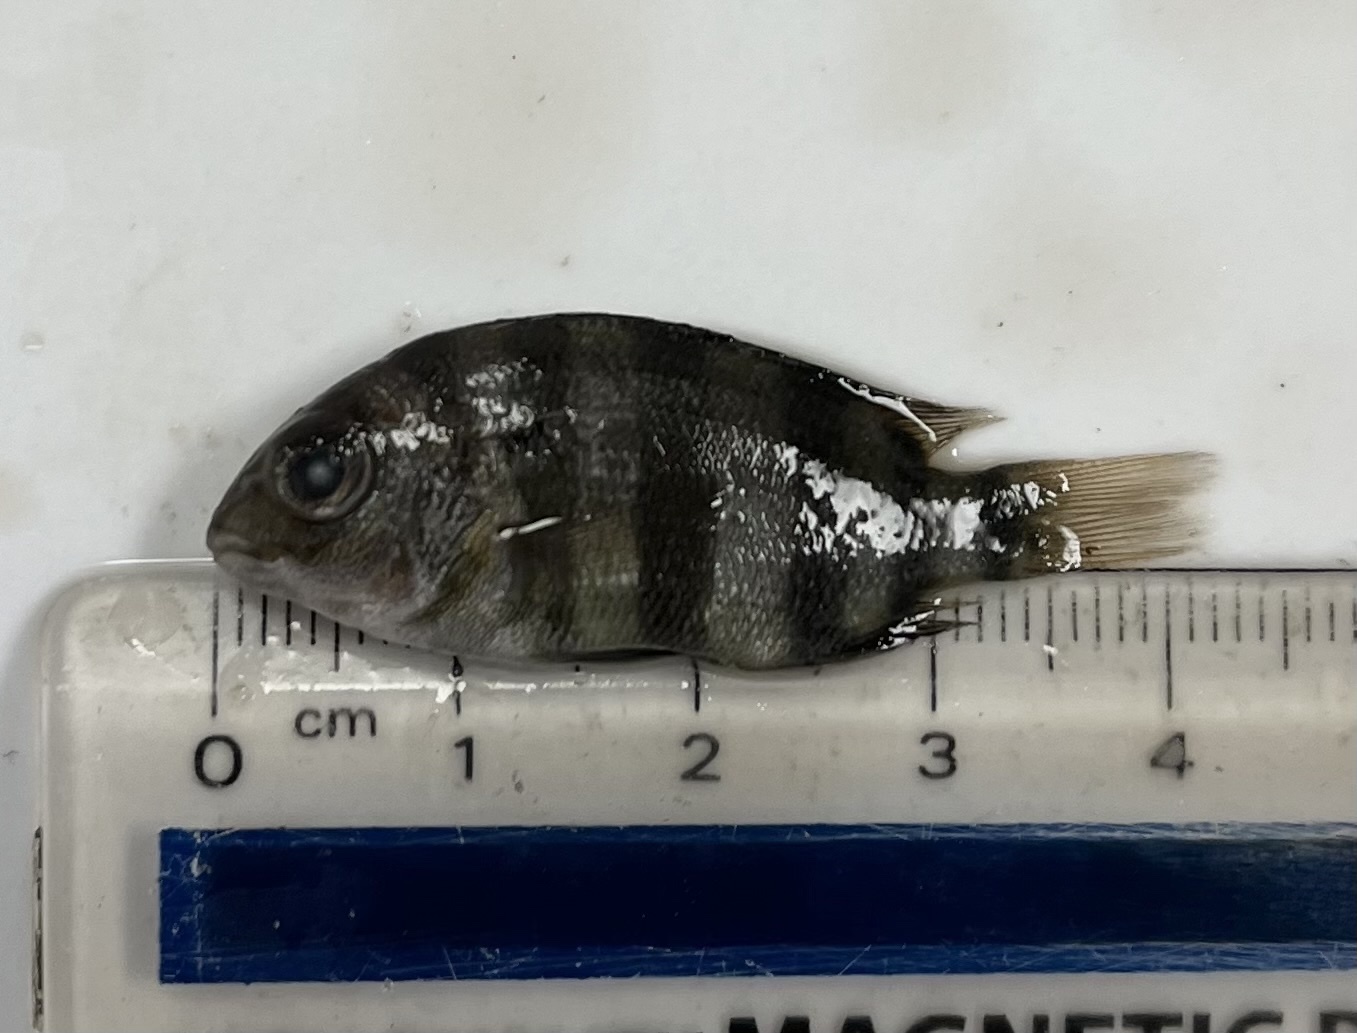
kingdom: Animalia
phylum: Chordata
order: Perciformes
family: Sparidae
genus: Archosargus
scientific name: Archosargus probatocephalus
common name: Sheepshead
